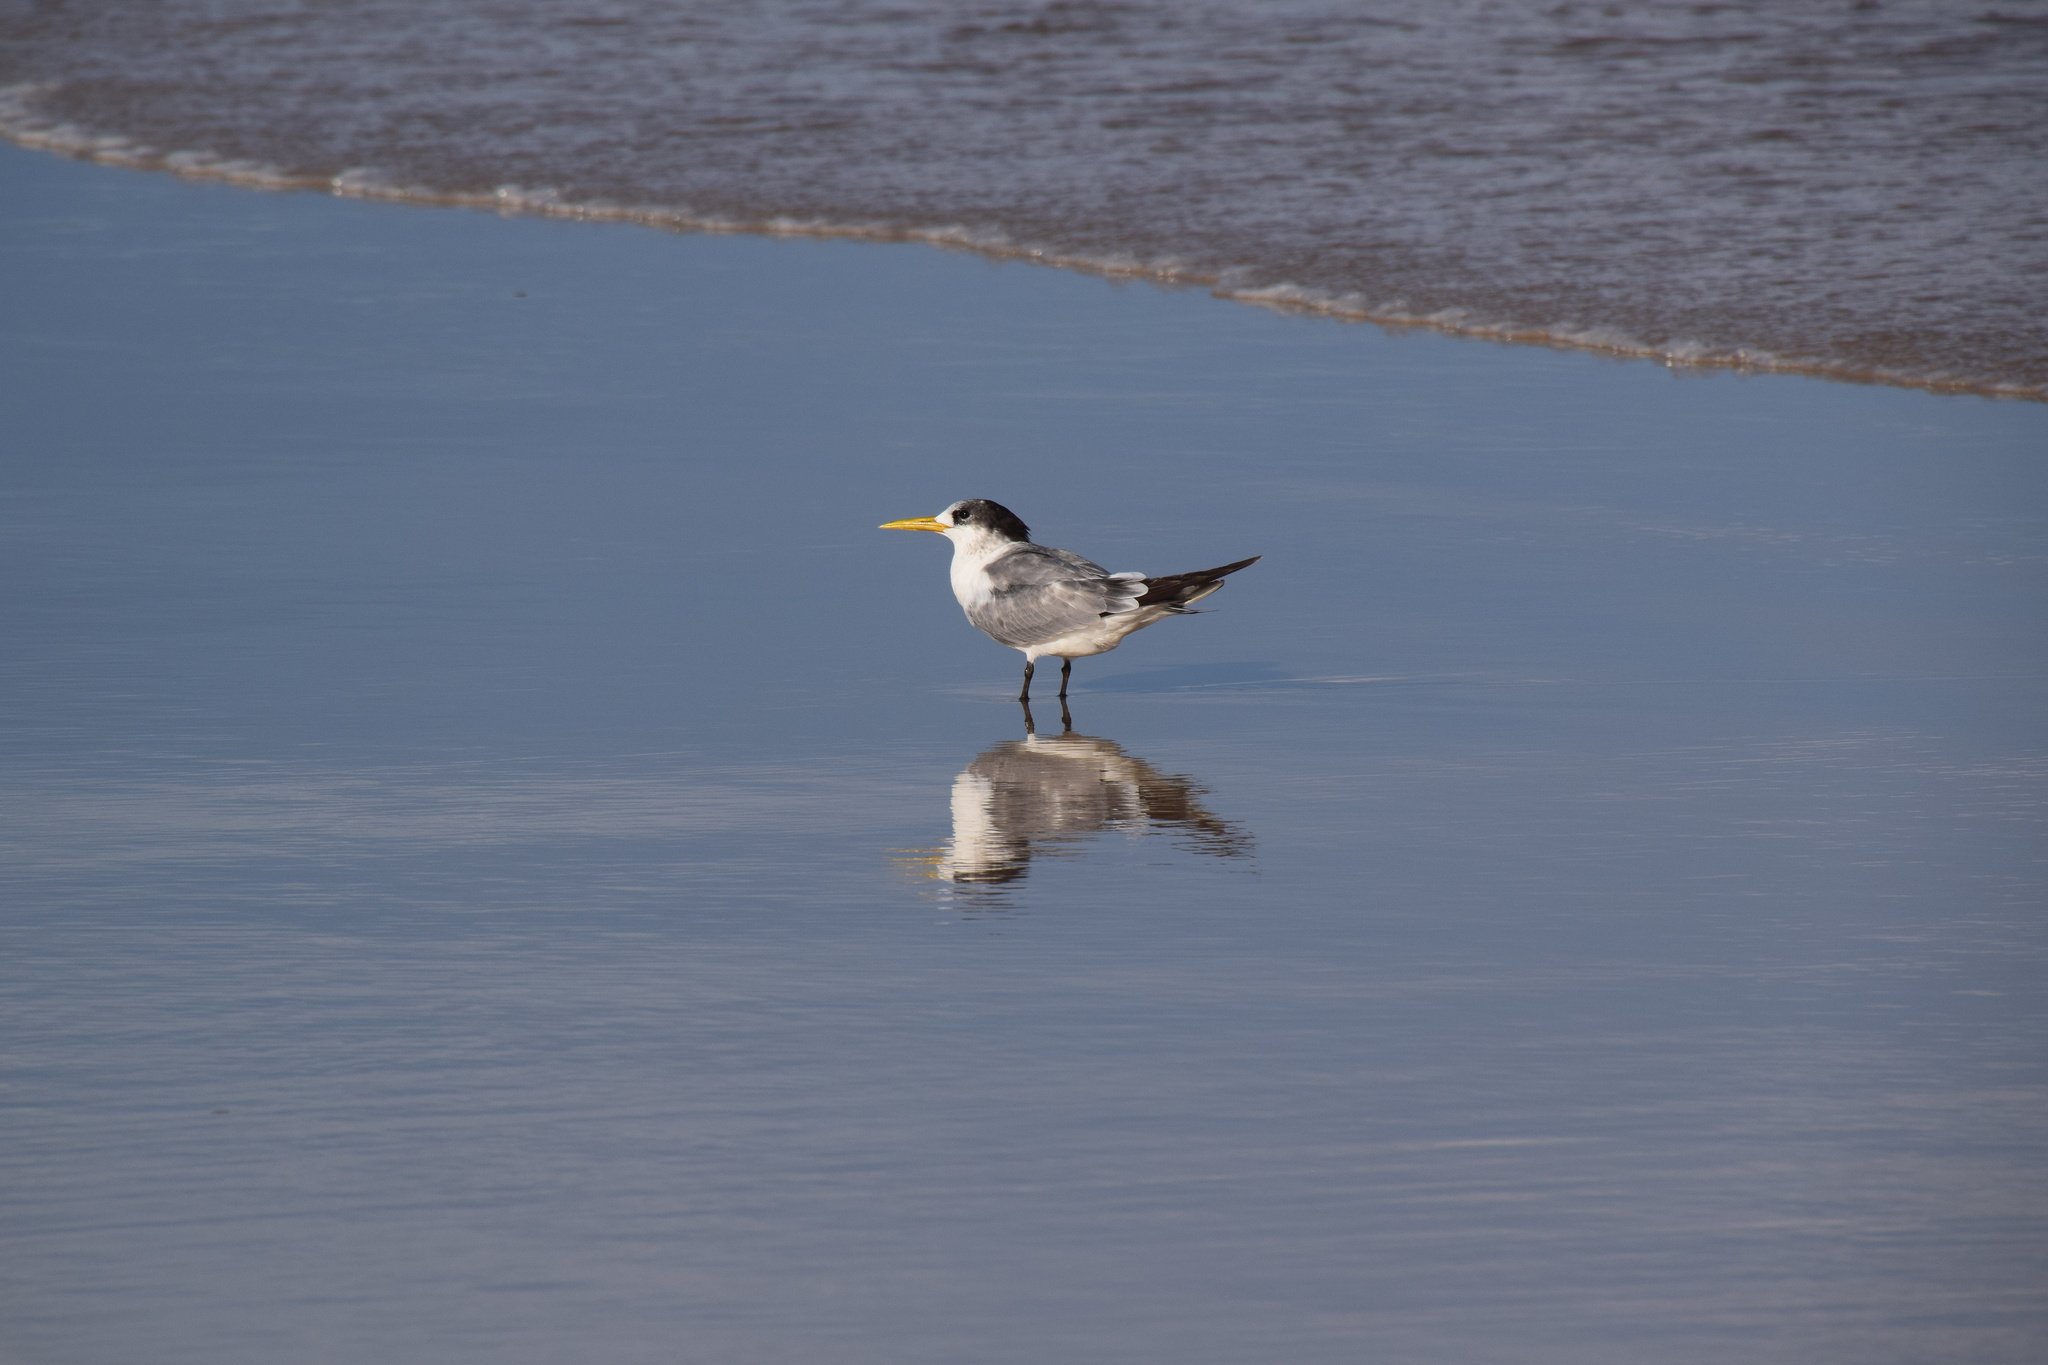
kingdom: Animalia
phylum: Chordata
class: Aves
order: Charadriiformes
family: Laridae
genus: Thalasseus
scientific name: Thalasseus bergii
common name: Greater crested tern
